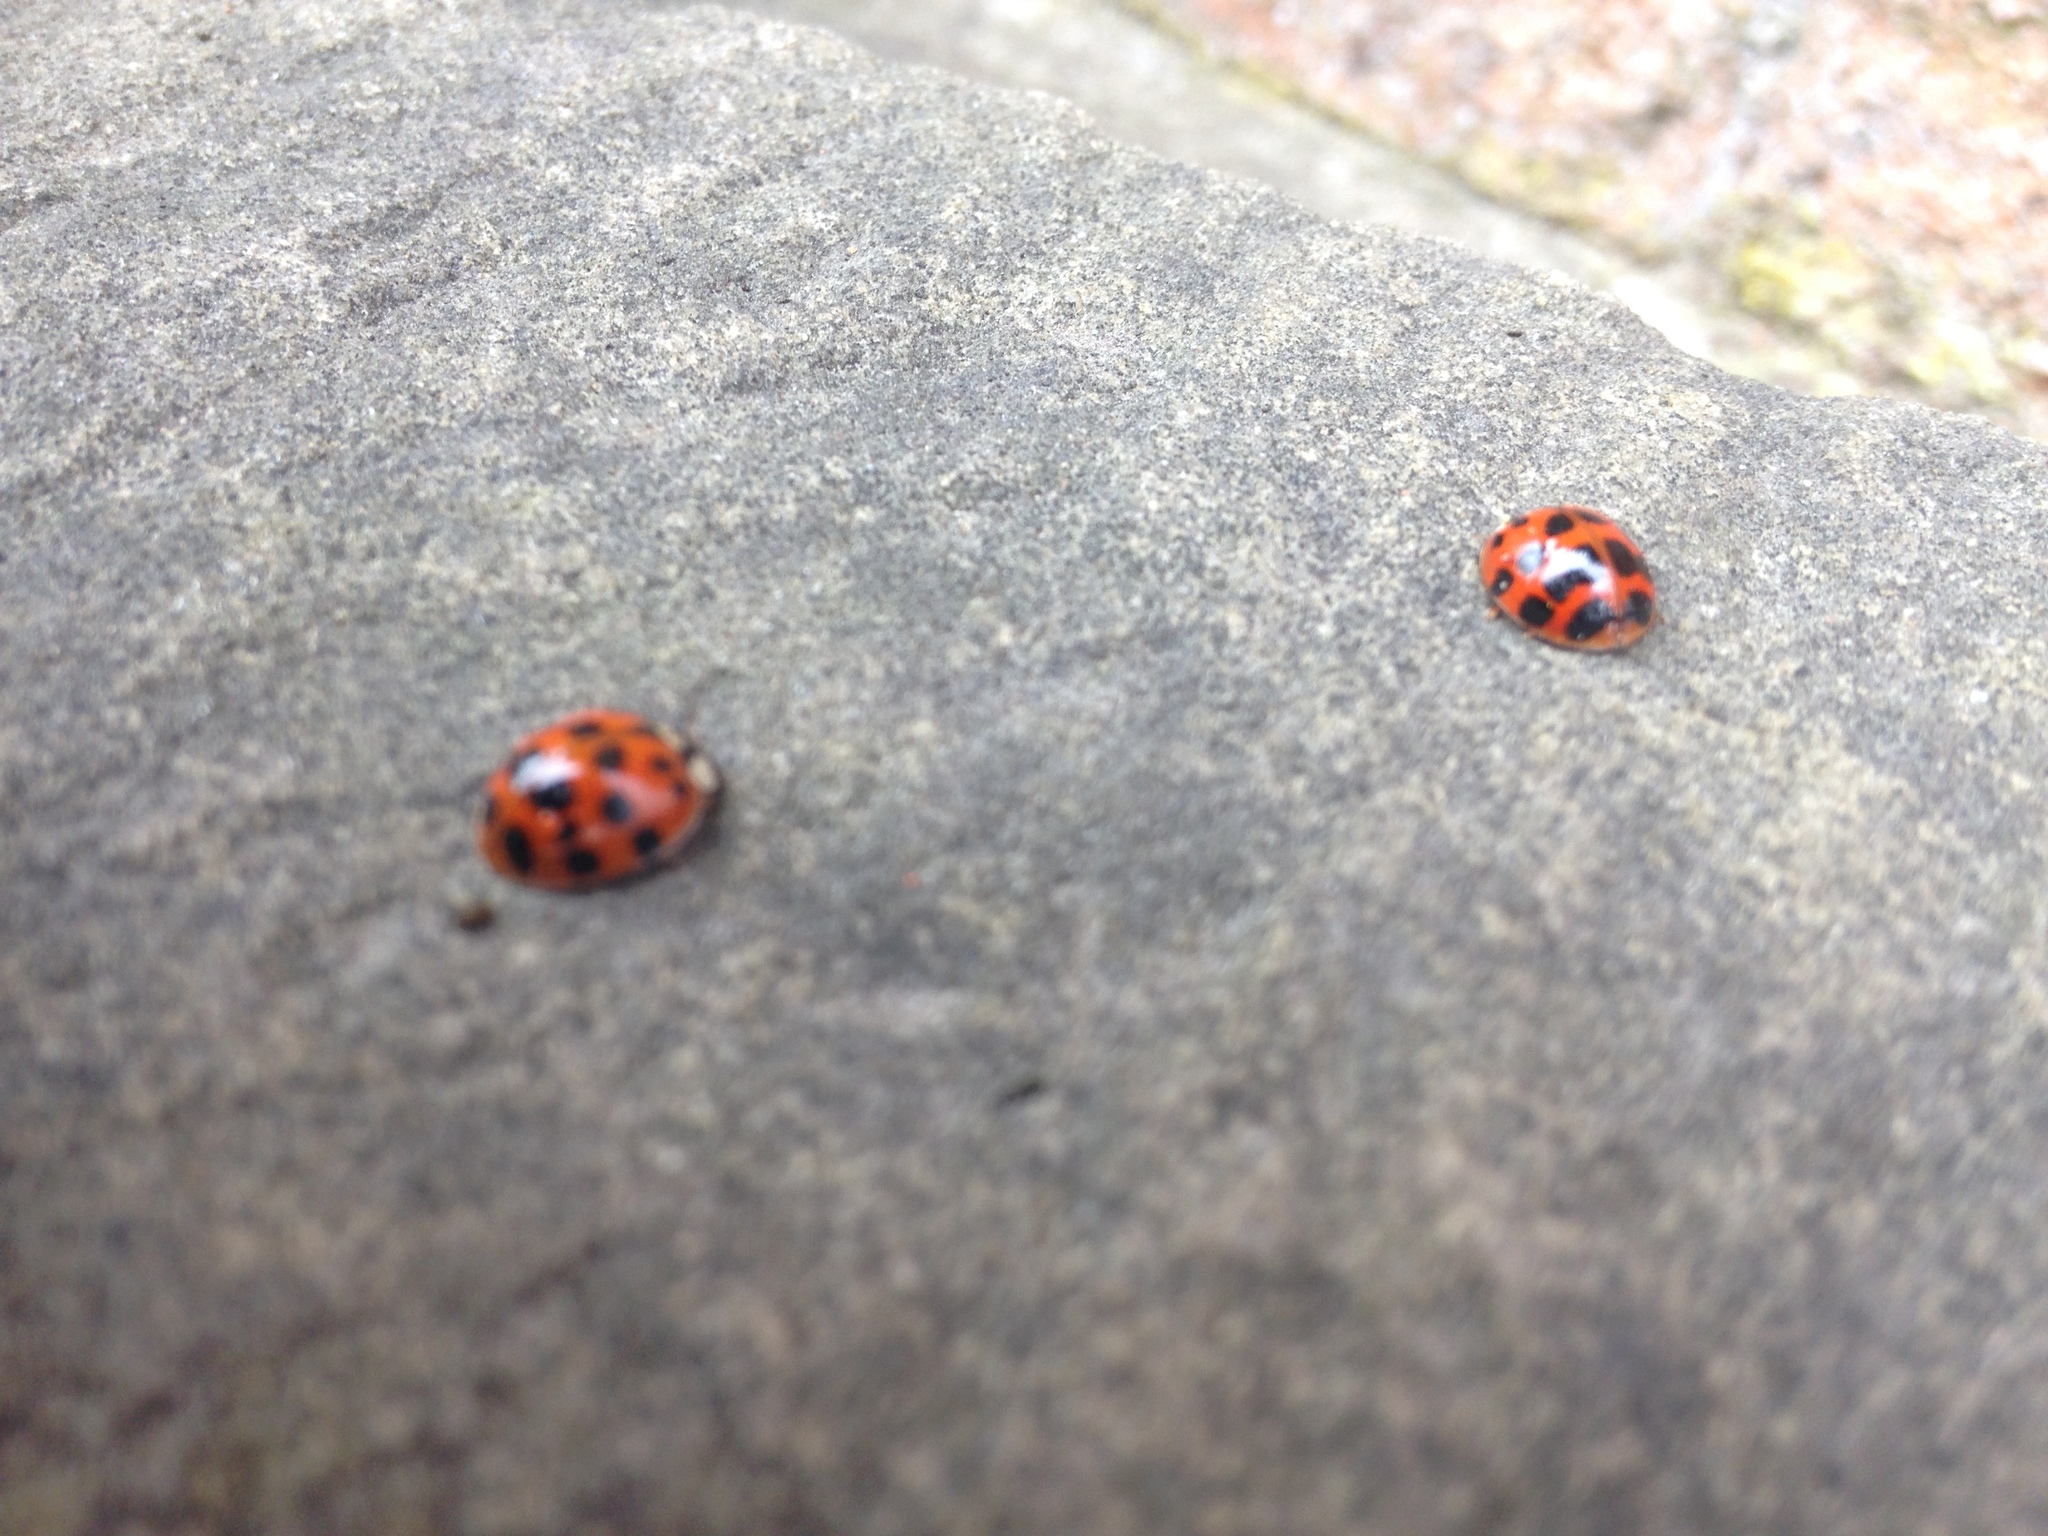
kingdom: Animalia
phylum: Arthropoda
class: Insecta
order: Coleoptera
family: Coccinellidae
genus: Harmonia
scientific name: Harmonia axyridis
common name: Harlequin ladybird
